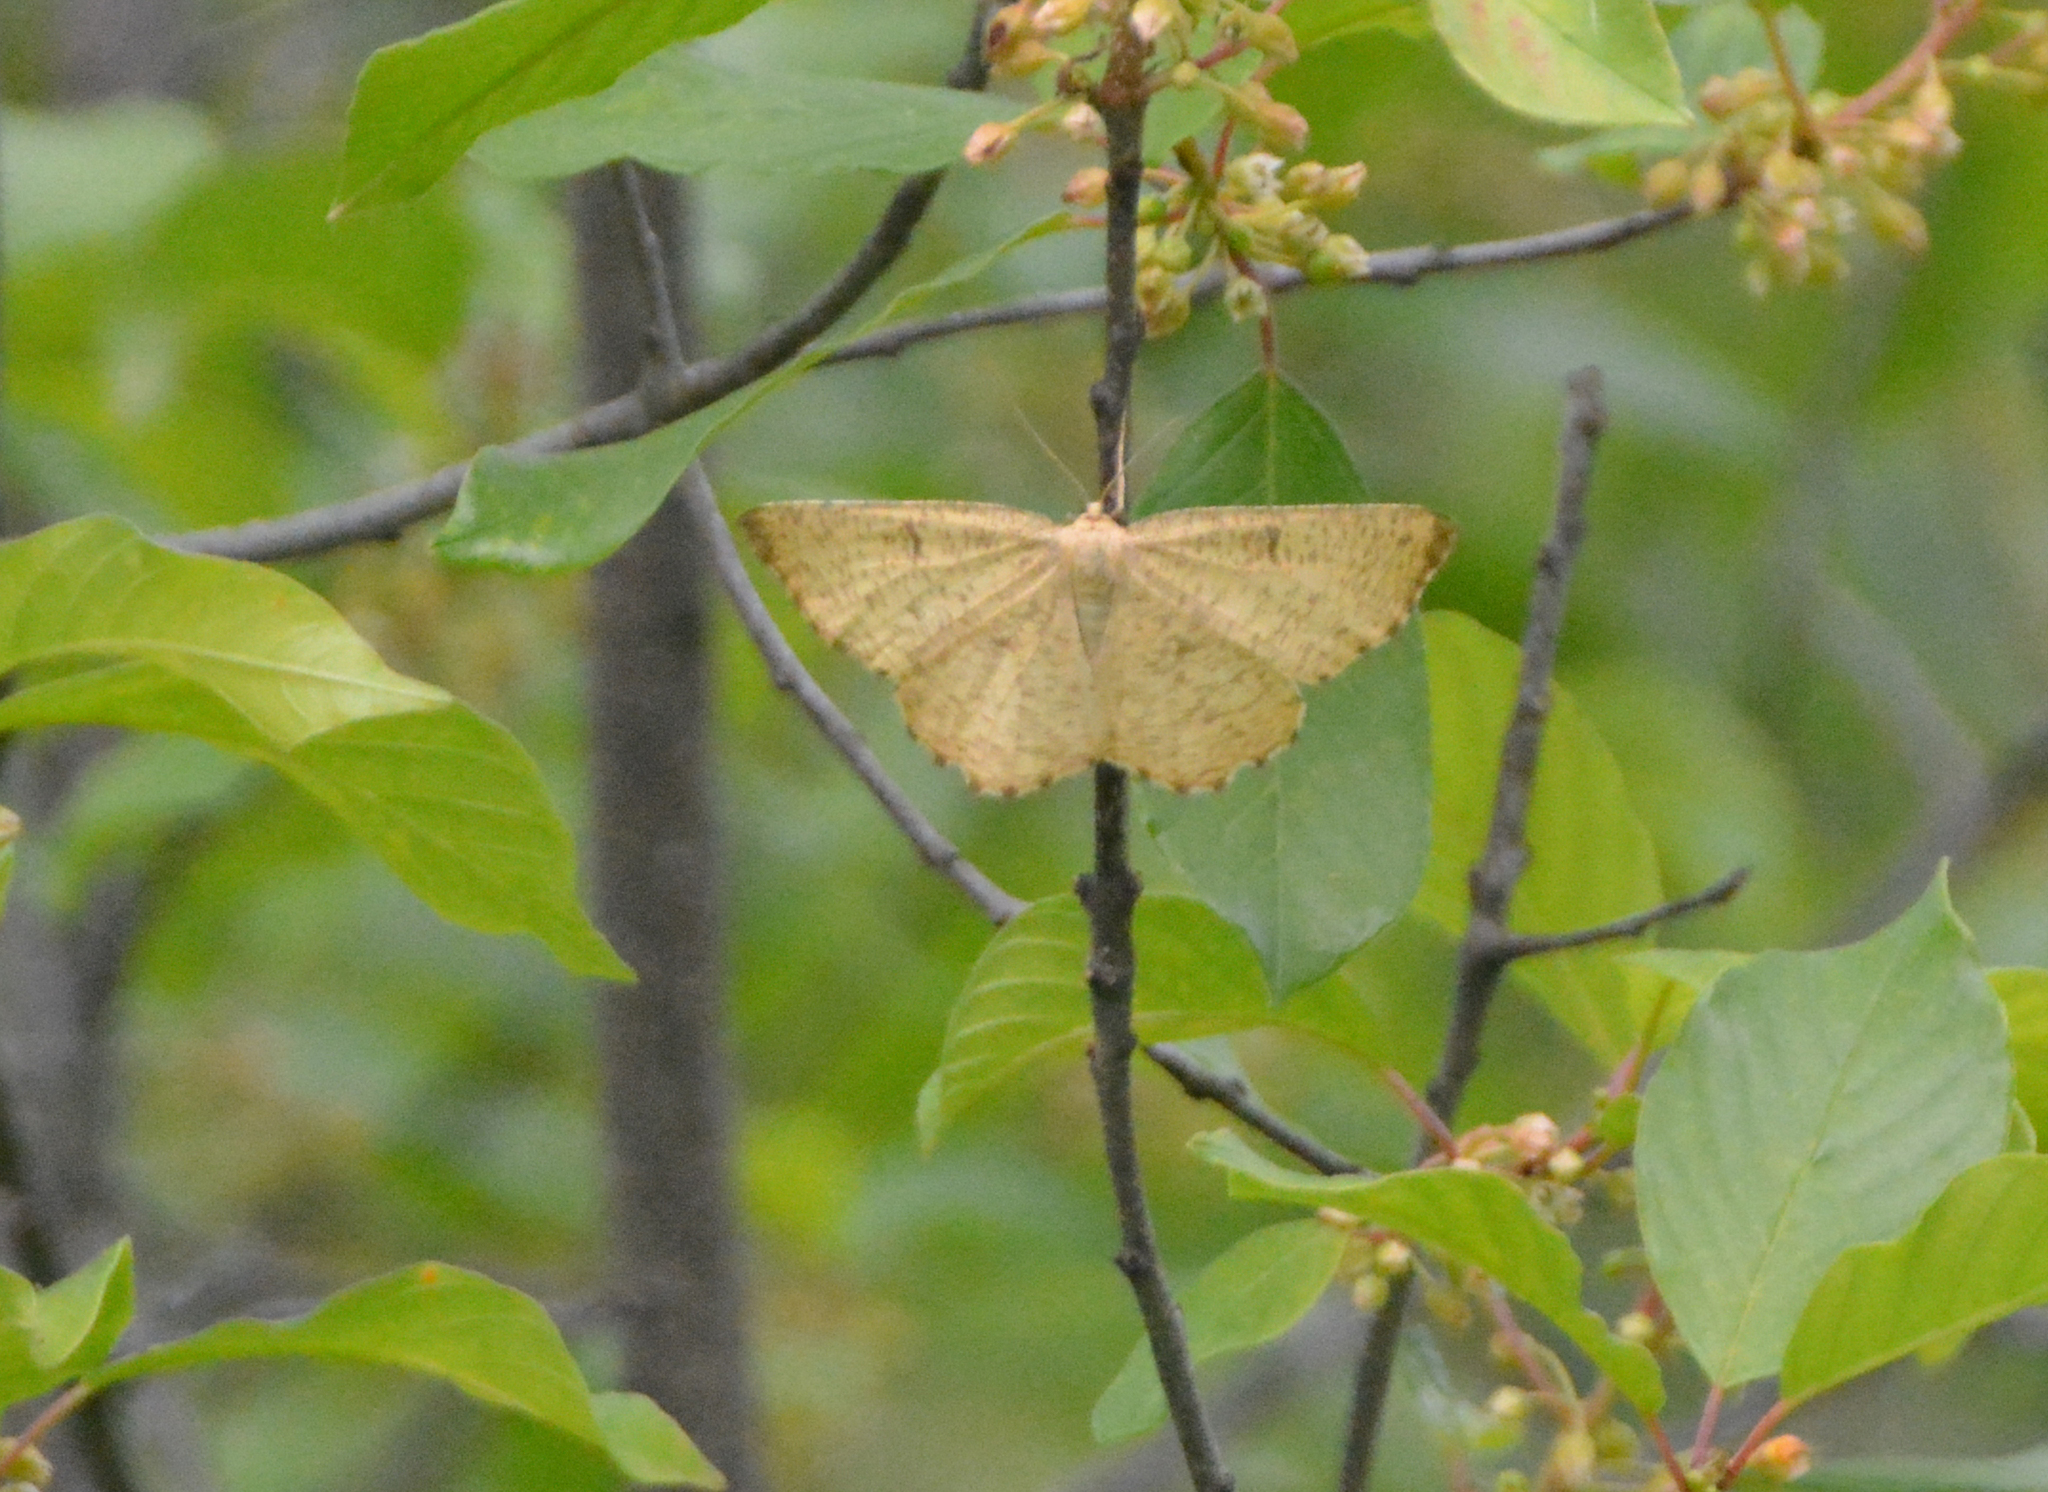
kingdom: Animalia
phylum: Arthropoda
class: Insecta
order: Lepidoptera
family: Geometridae
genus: Angerona
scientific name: Angerona prunaria
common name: Orange moth
